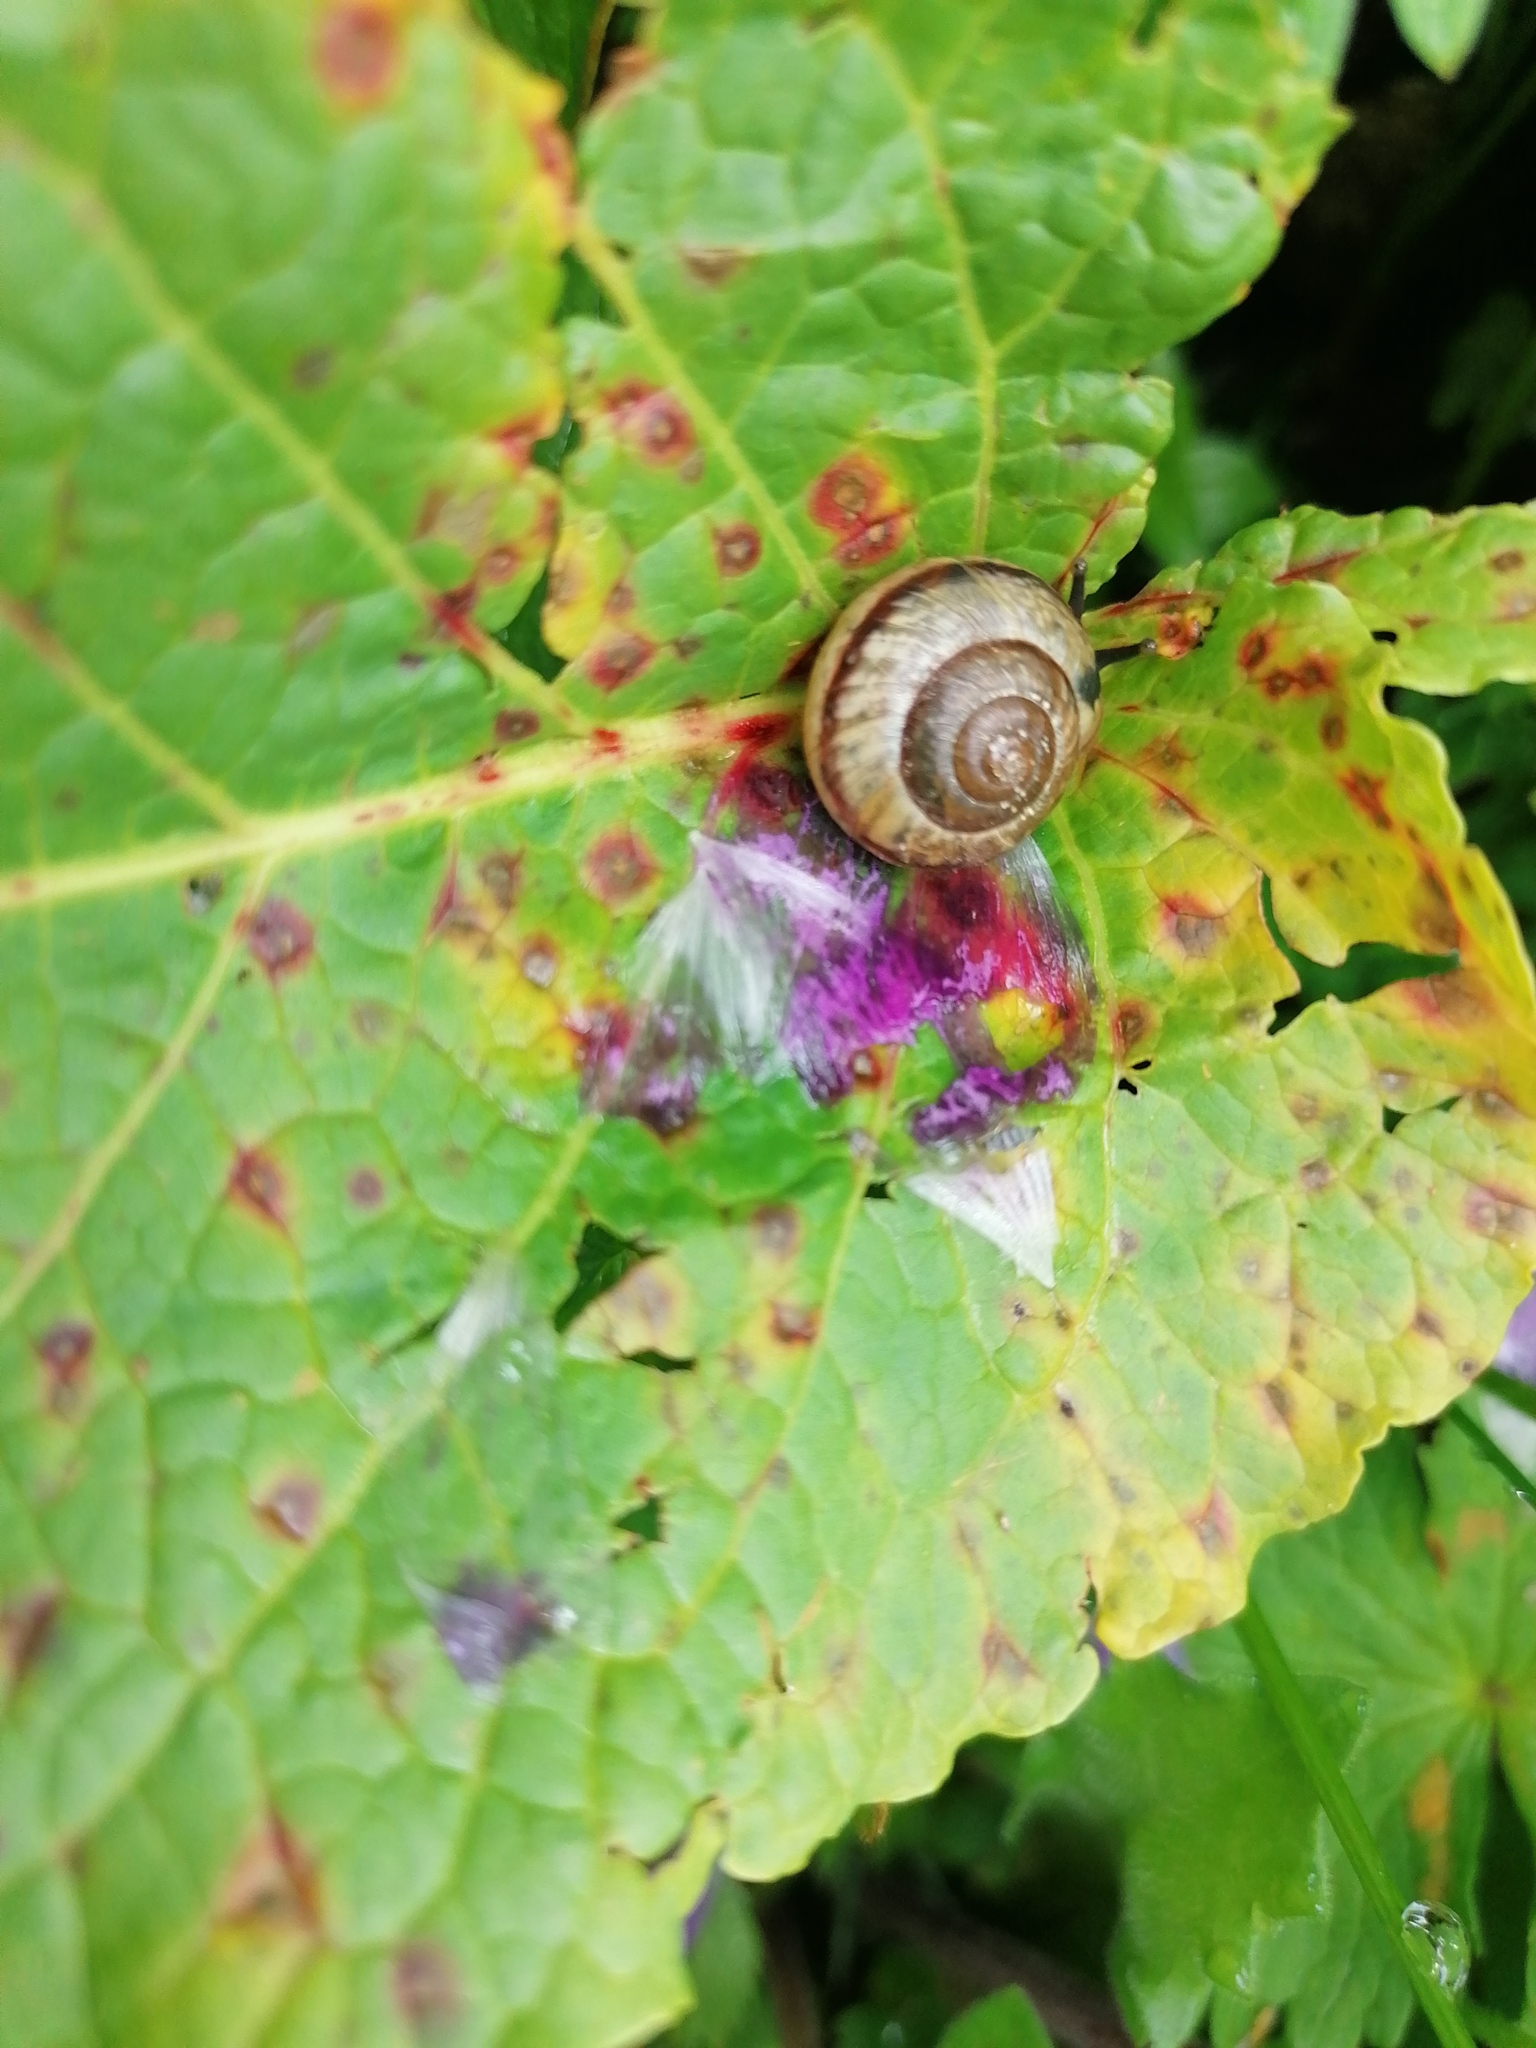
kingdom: Animalia
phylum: Mollusca
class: Gastropoda
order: Stylommatophora
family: Helicidae
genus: Arianta
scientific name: Arianta arbustorum
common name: Copse snail
